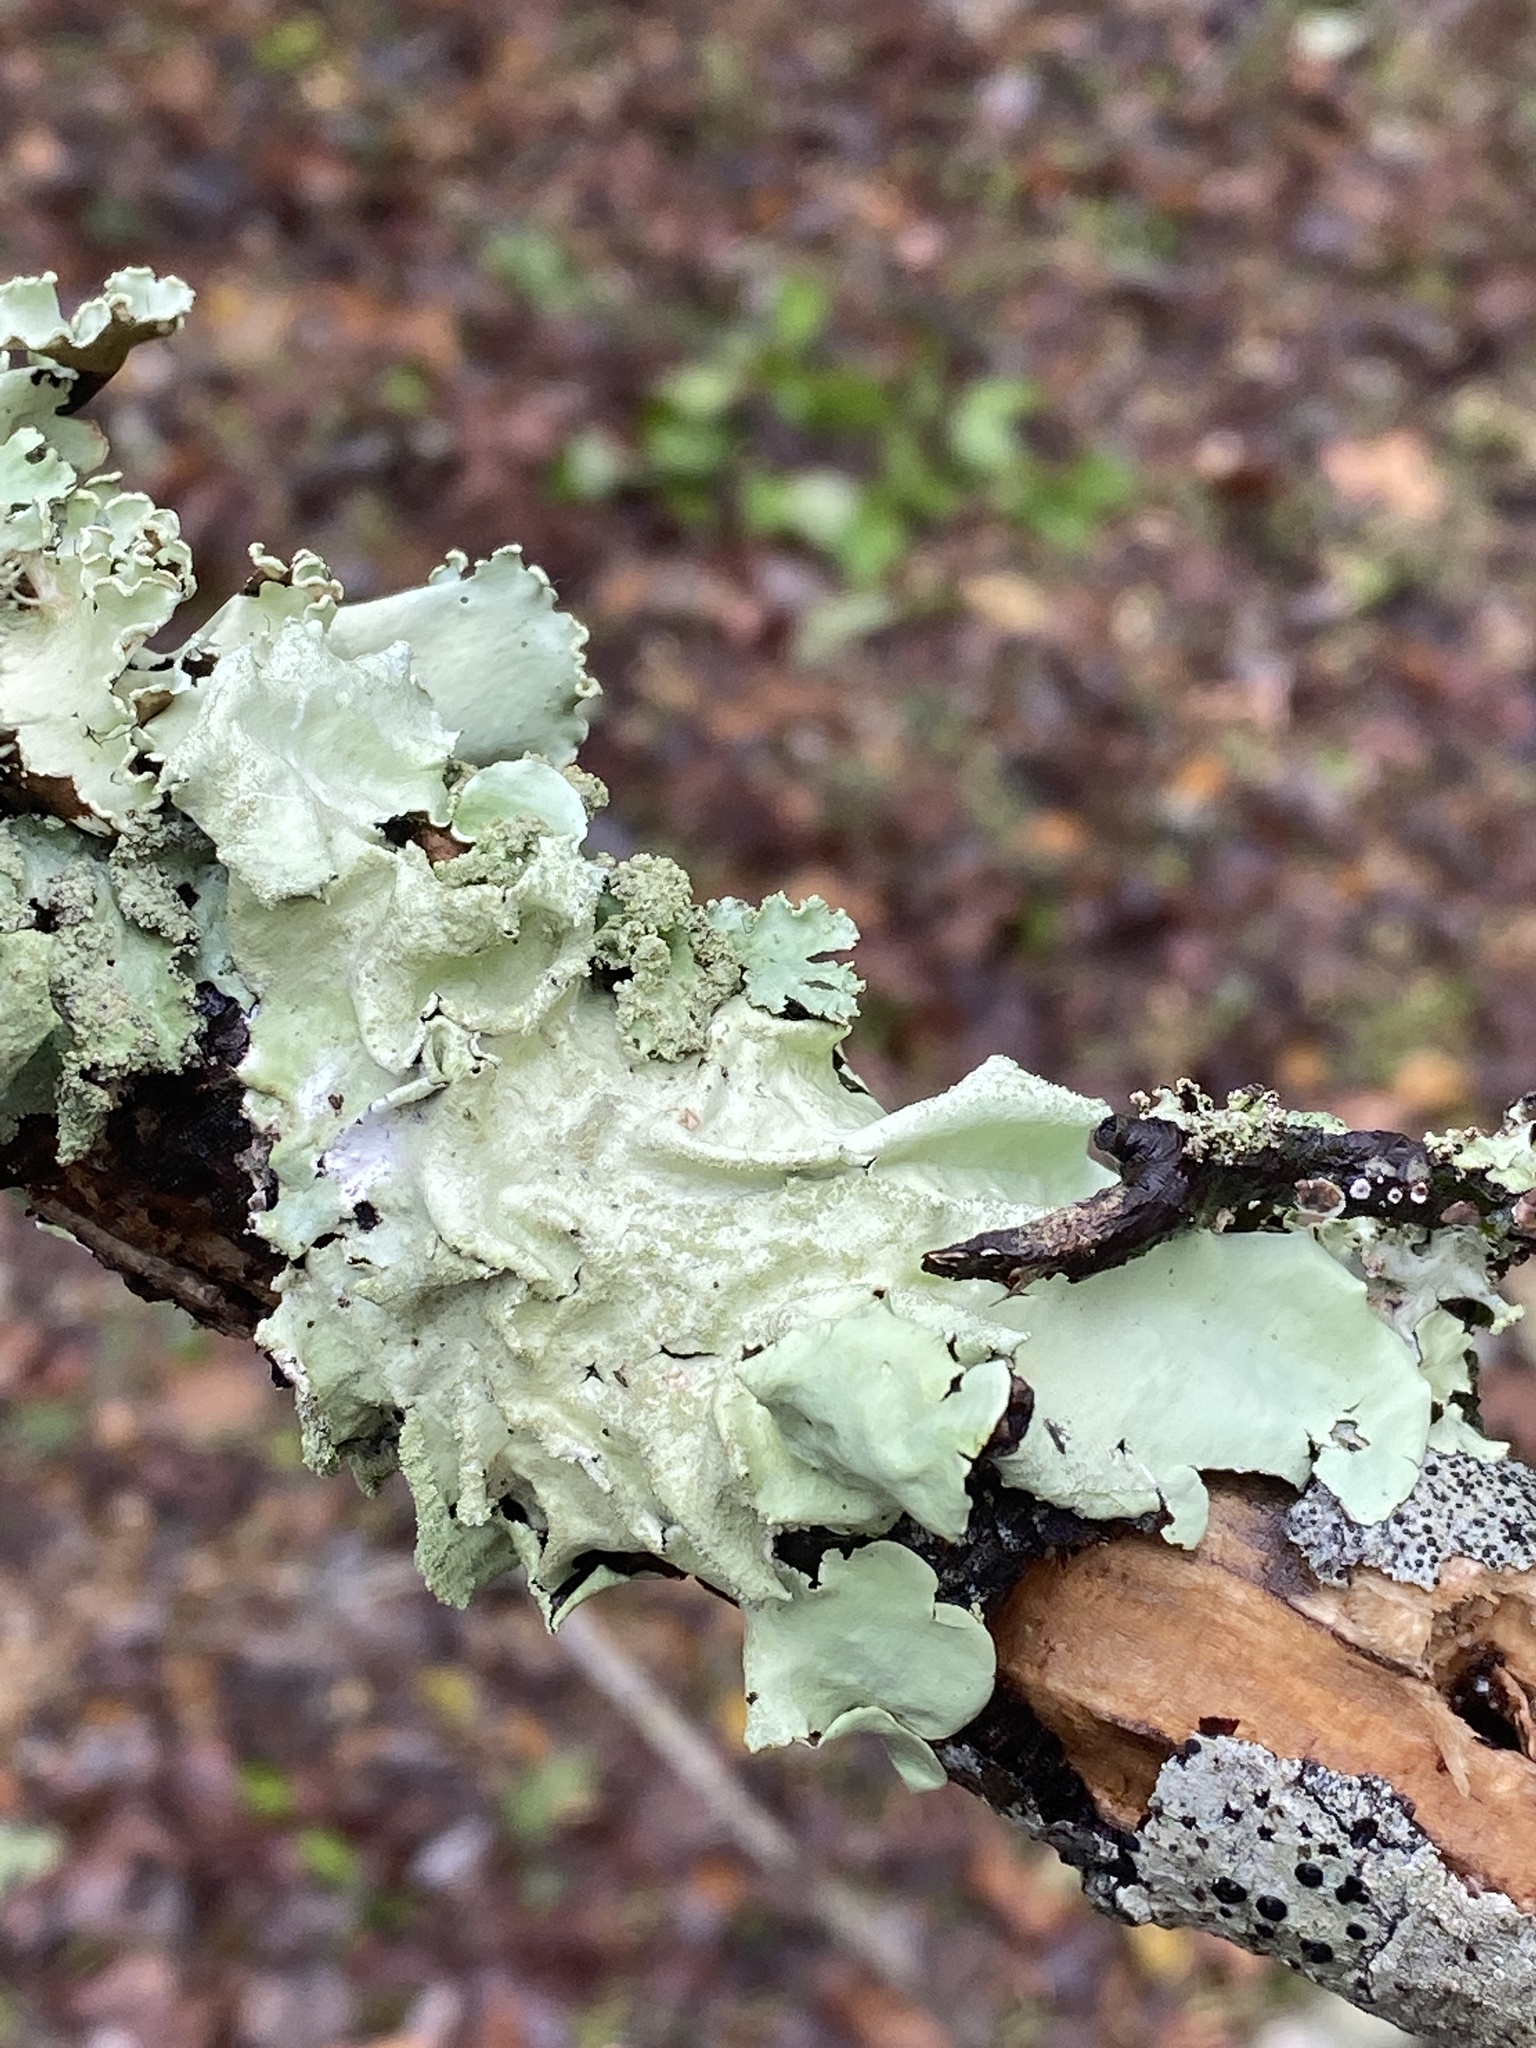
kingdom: Fungi
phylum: Ascomycota
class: Lecanoromycetes
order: Lecanorales
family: Parmeliaceae
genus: Parmotrema
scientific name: Parmotrema tinctorum
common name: Old gray ruffles
